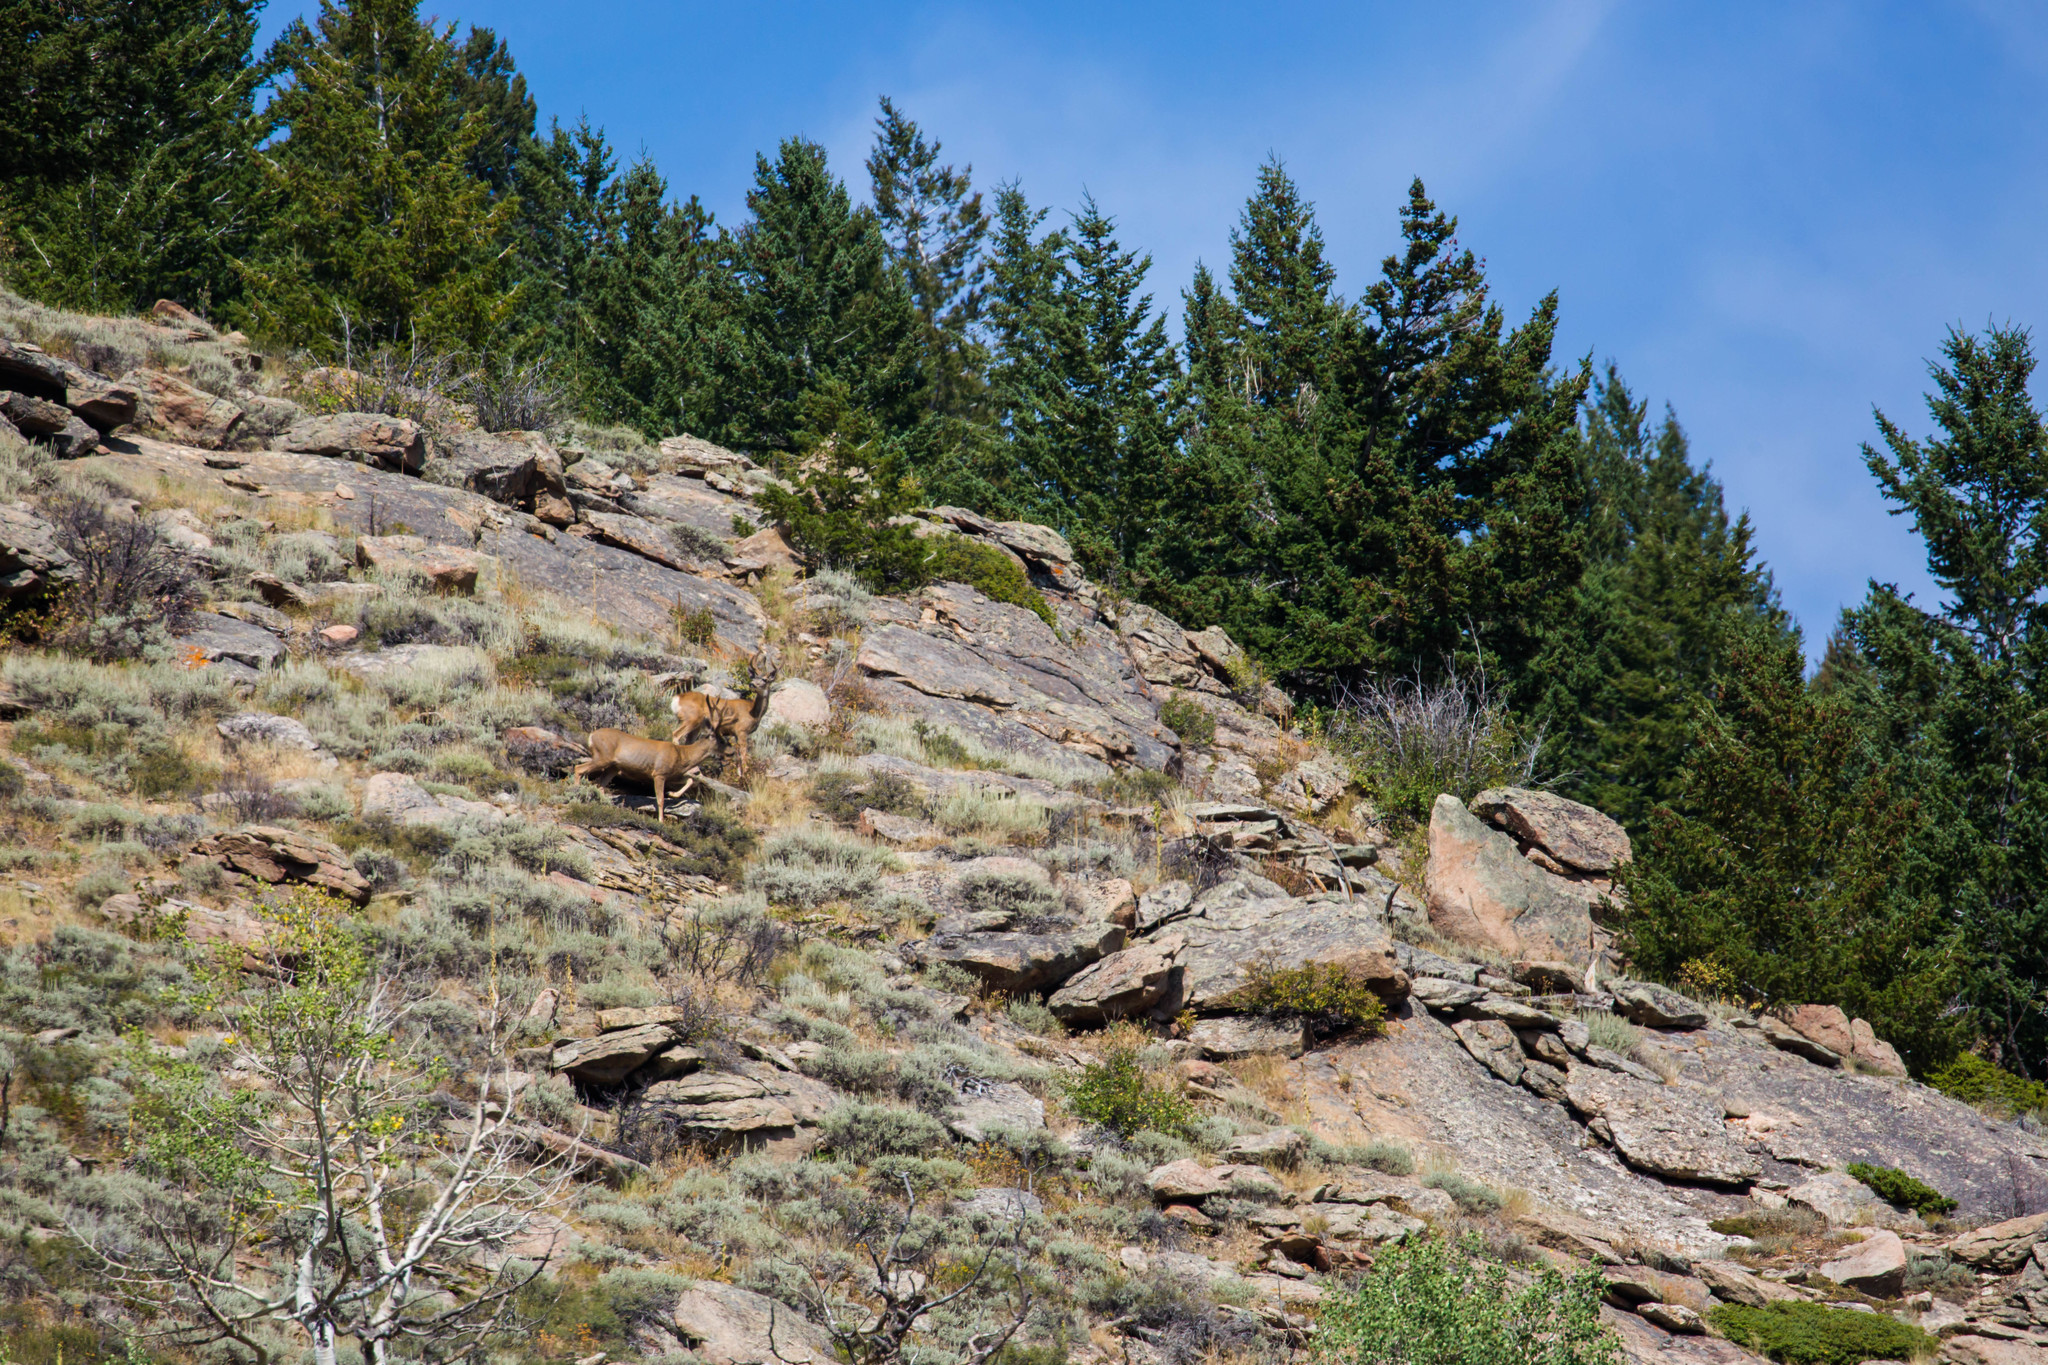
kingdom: Animalia
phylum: Chordata
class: Mammalia
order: Artiodactyla
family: Cervidae
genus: Odocoileus
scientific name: Odocoileus hemionus
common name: Mule deer
